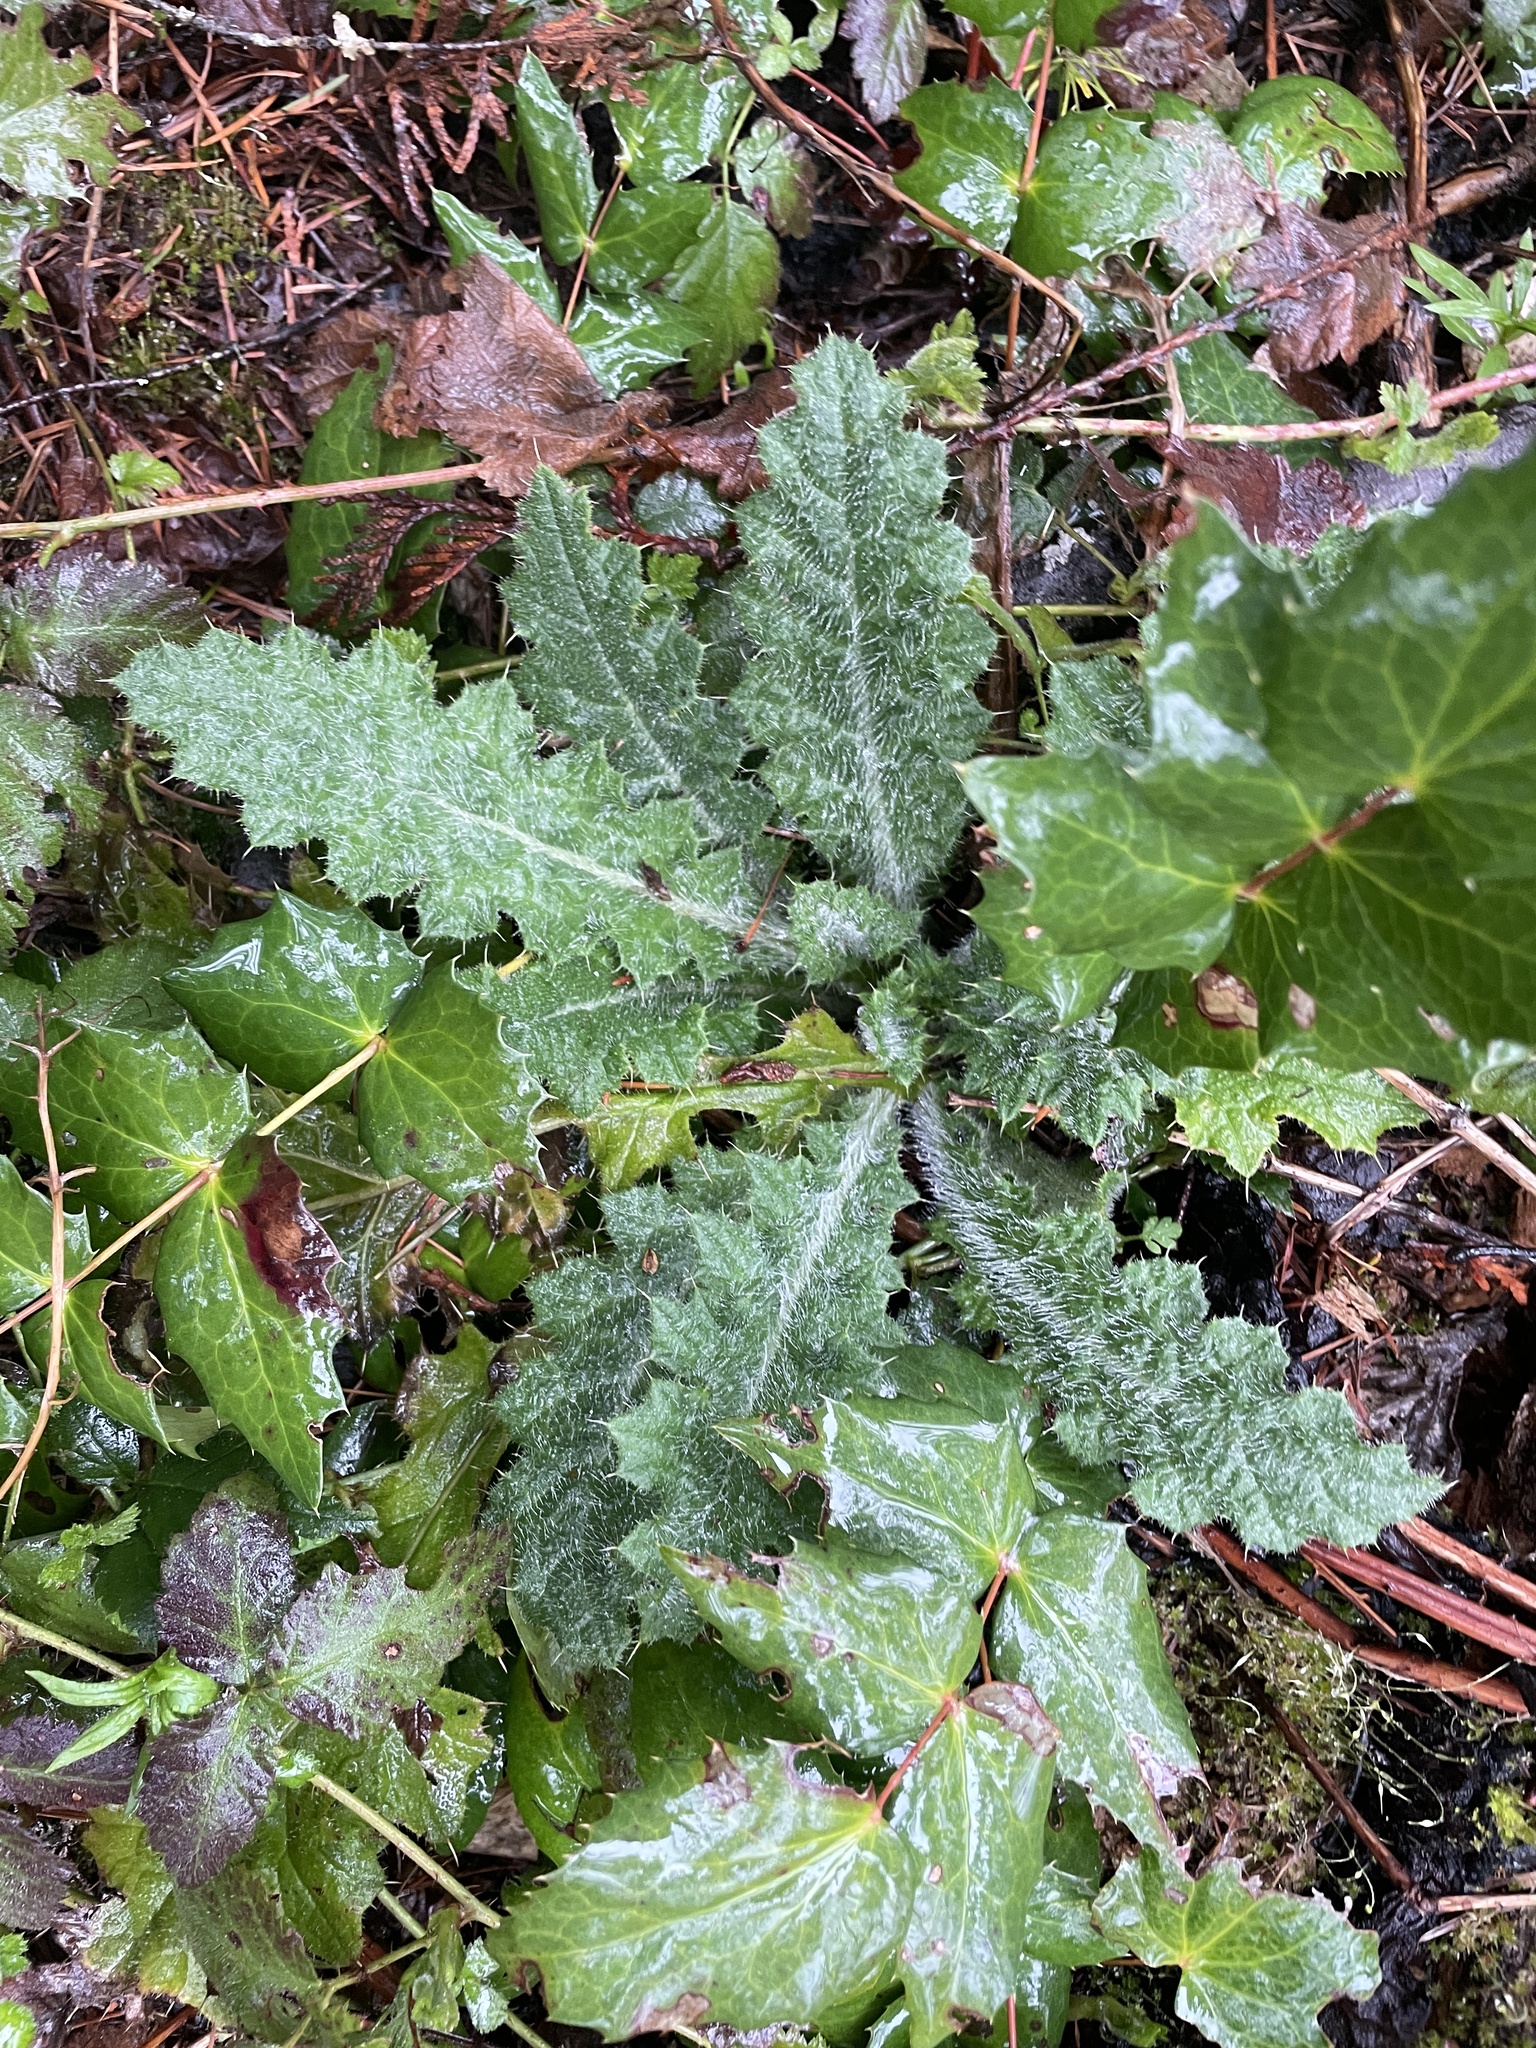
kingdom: Plantae
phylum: Tracheophyta
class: Magnoliopsida
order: Asterales
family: Asteraceae
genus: Cirsium
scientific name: Cirsium vulgare
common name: Bull thistle
